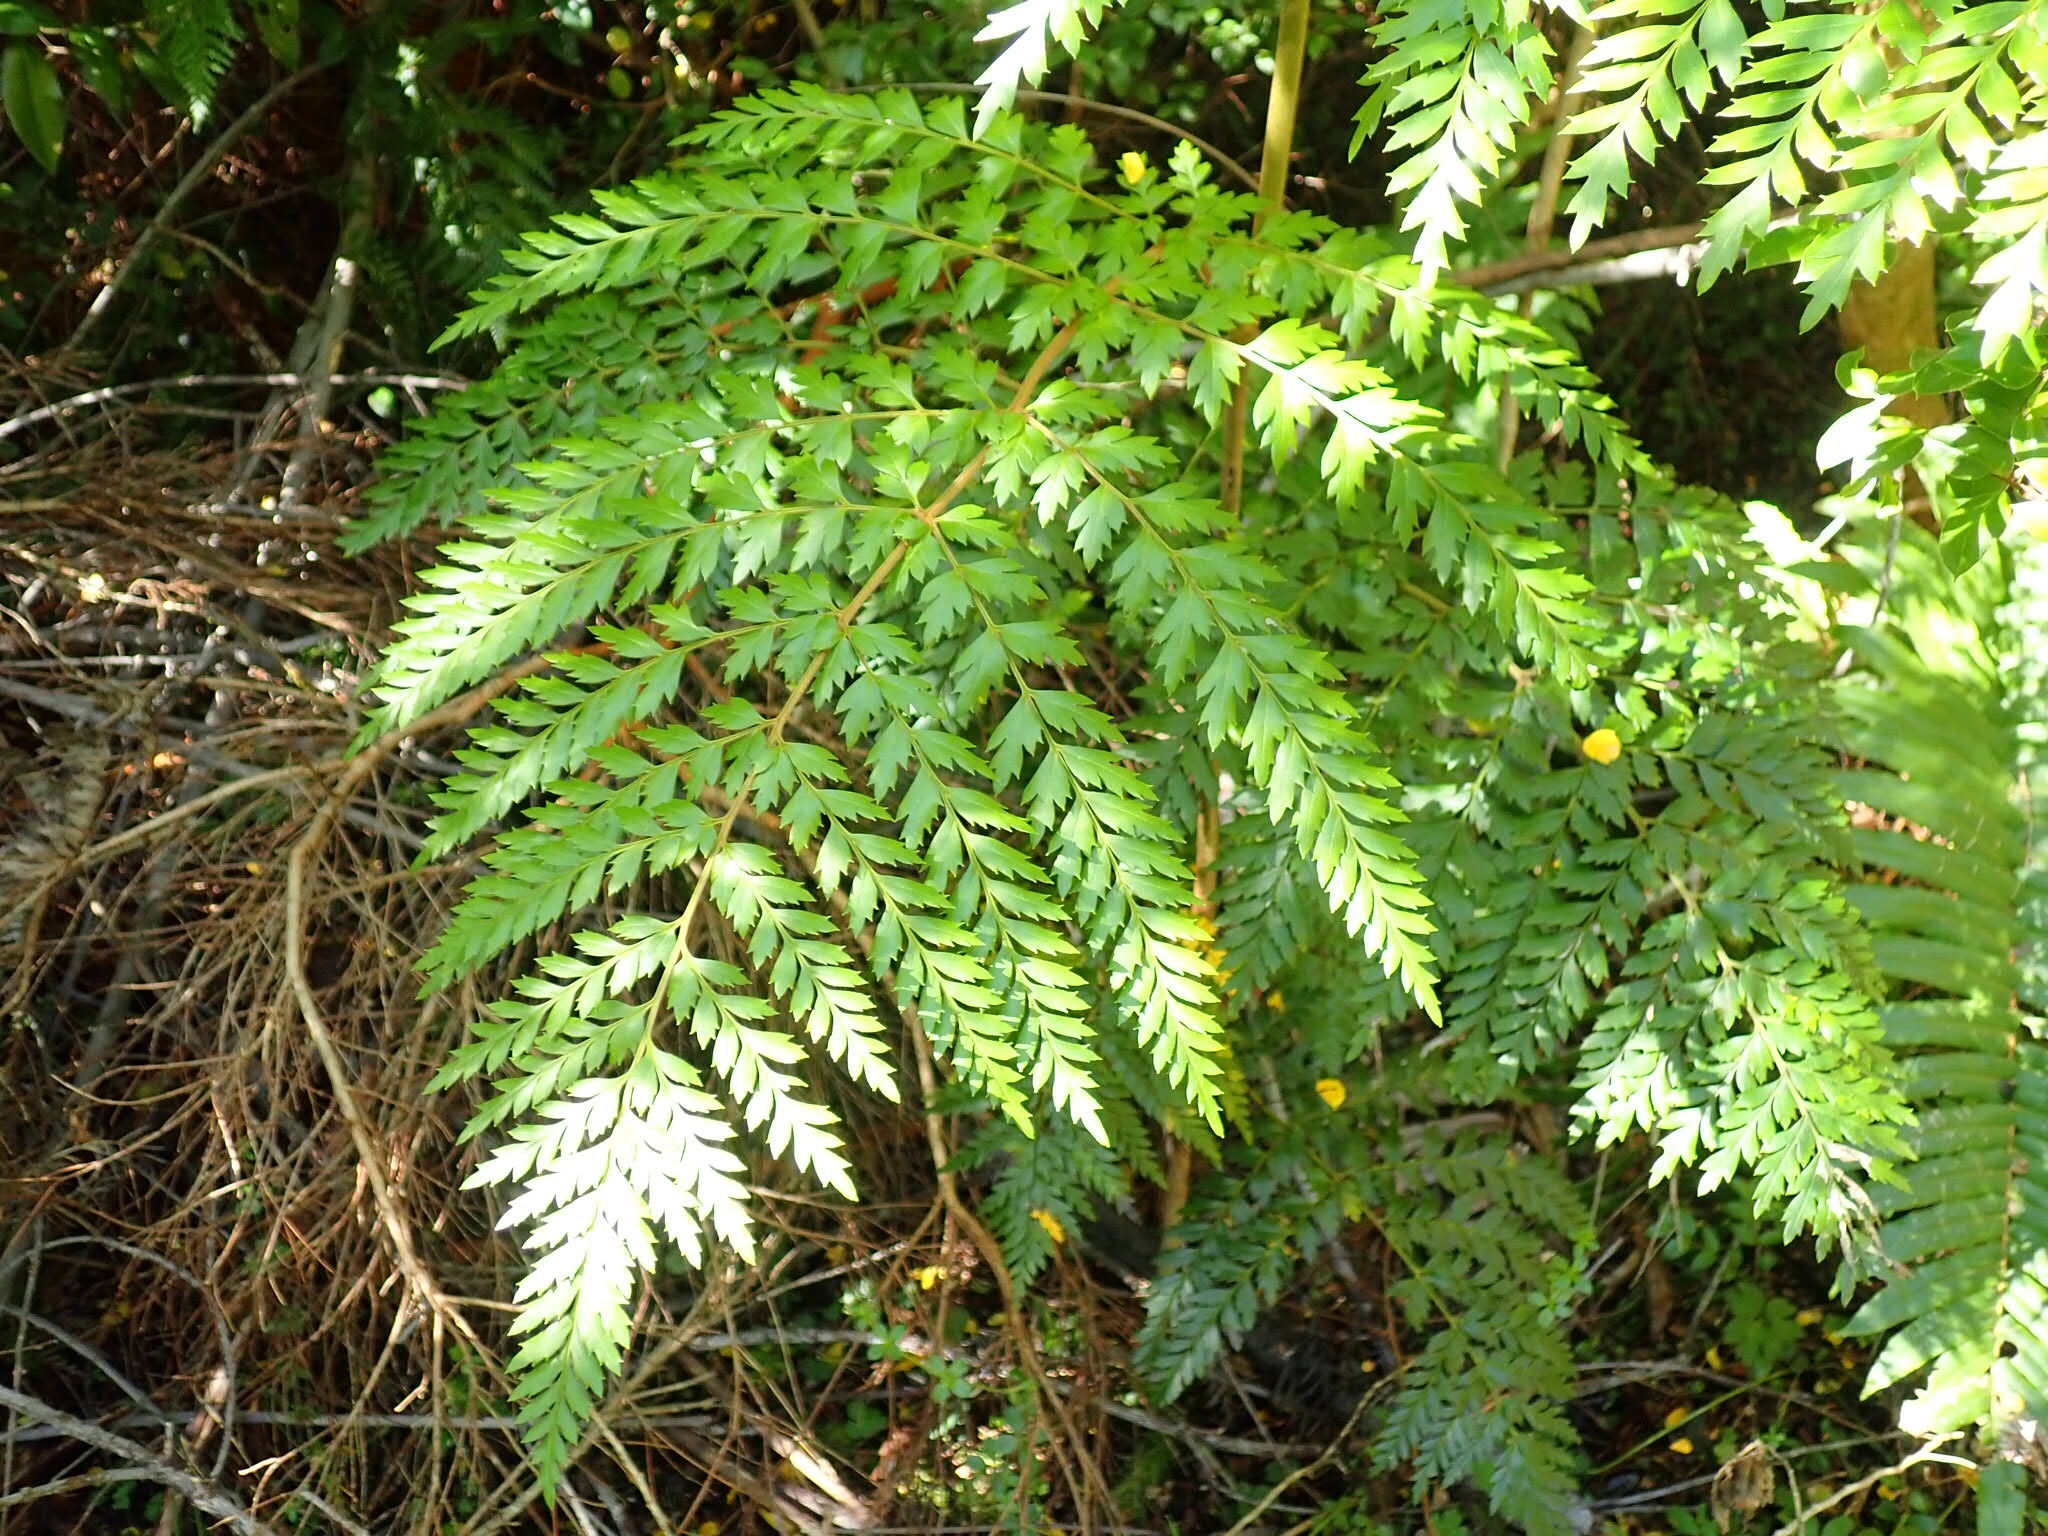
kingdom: Plantae
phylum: Tracheophyta
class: Magnoliopsida
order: Proteales
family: Proteaceae
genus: Lomatia
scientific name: Lomatia ferruginea
